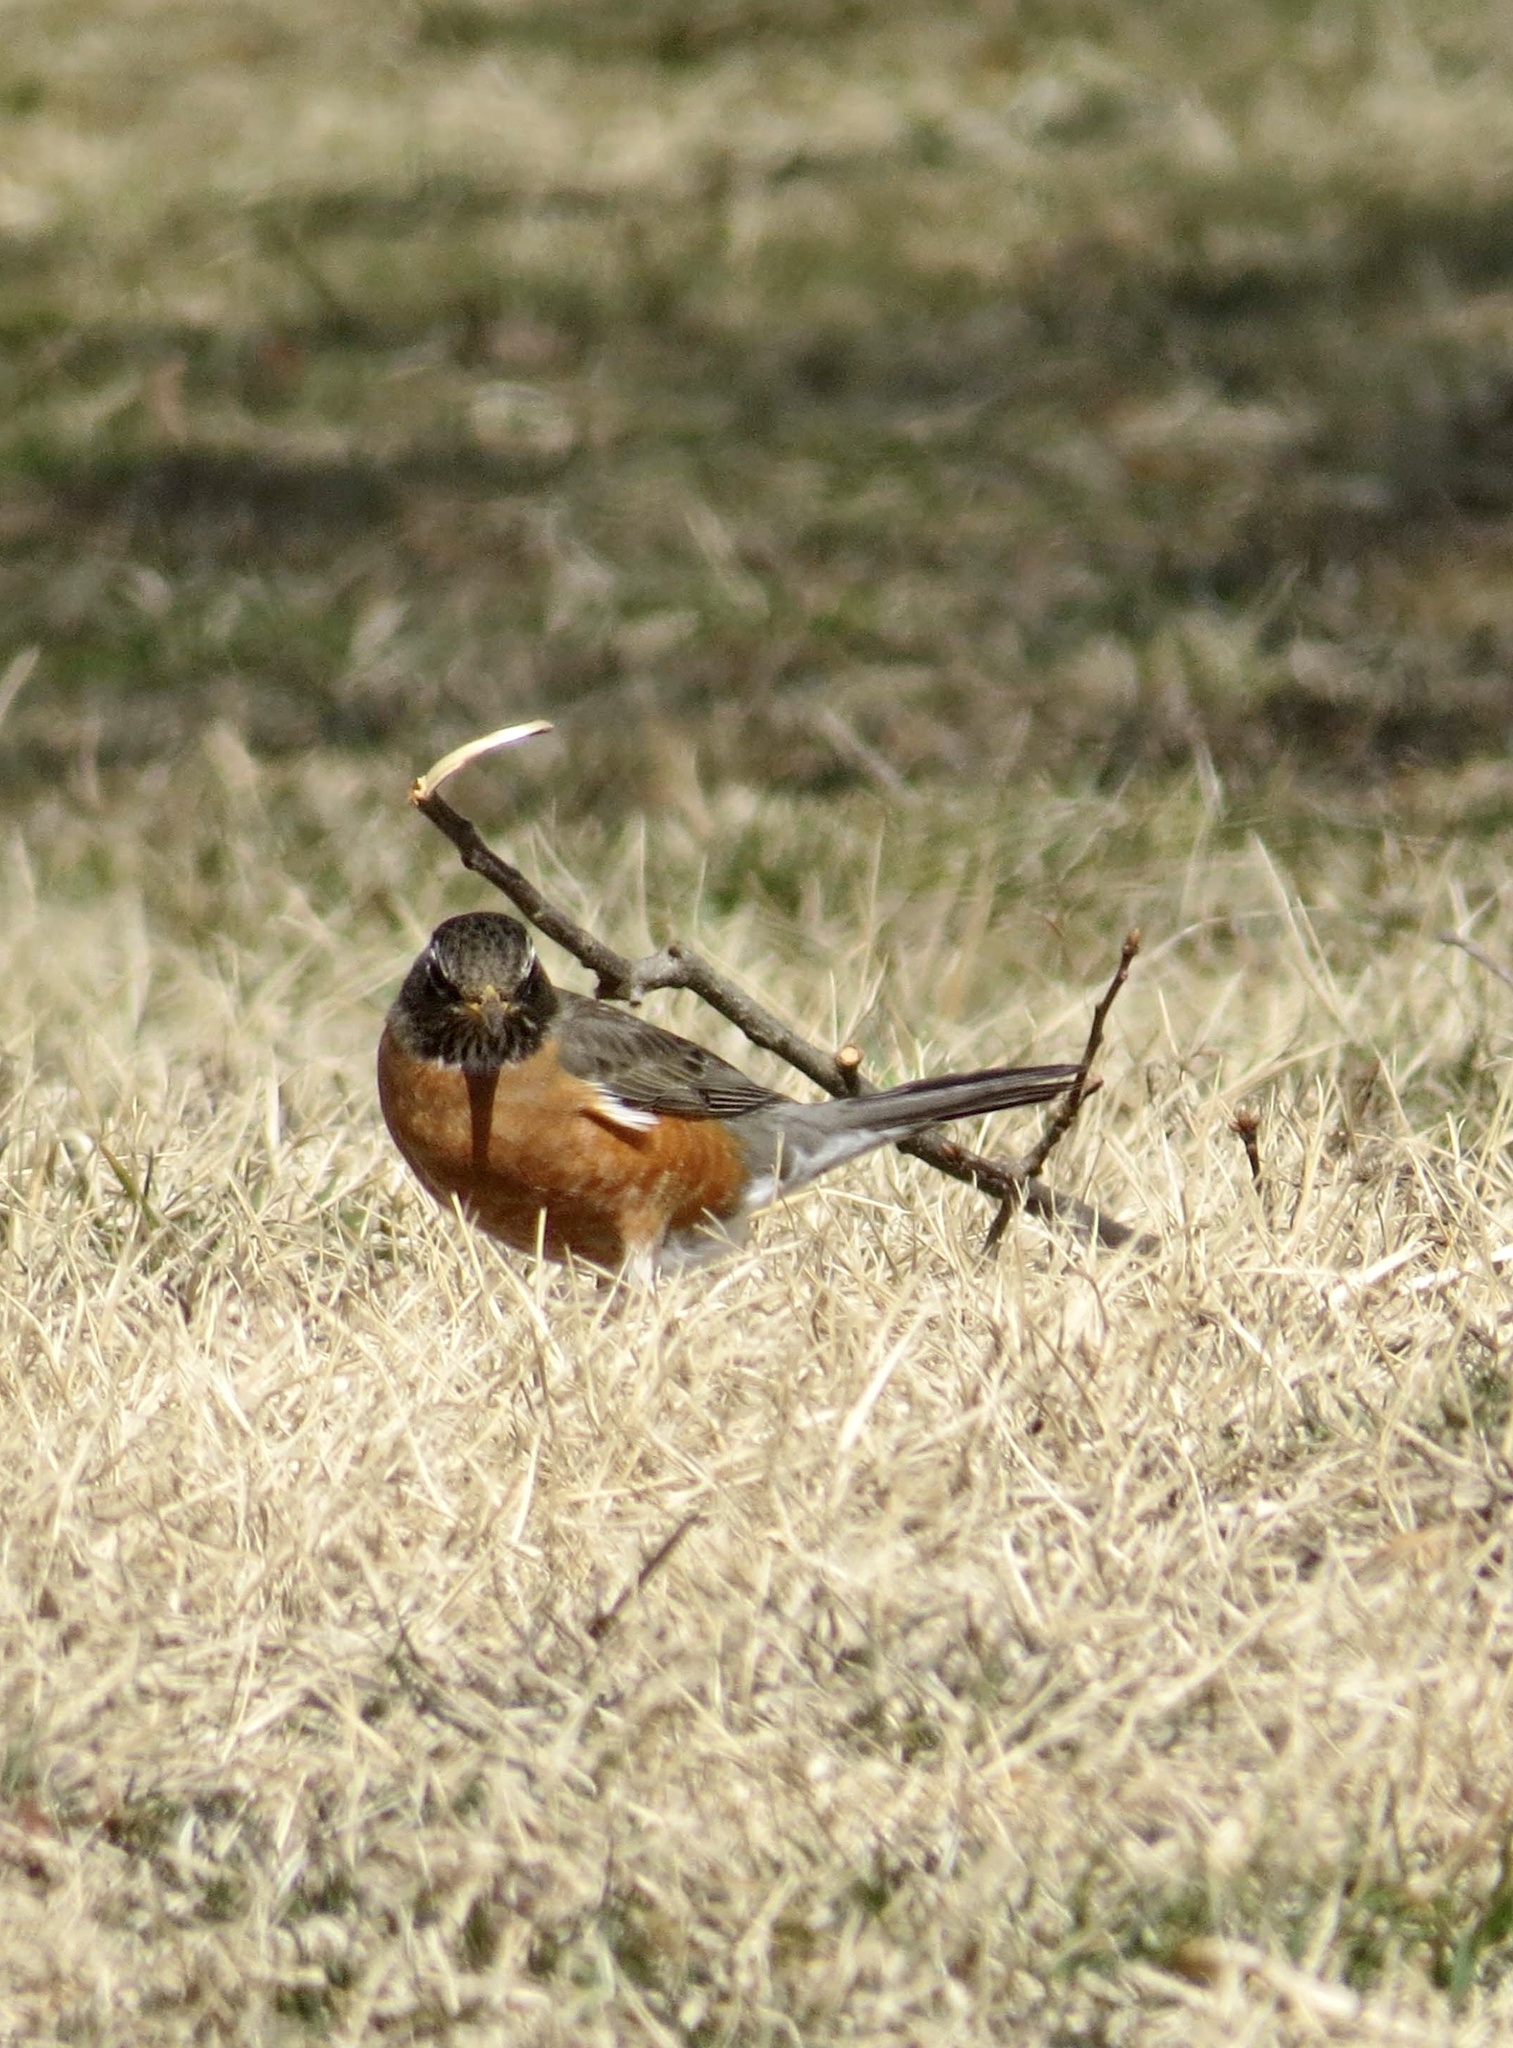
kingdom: Animalia
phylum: Chordata
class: Aves
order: Passeriformes
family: Turdidae
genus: Turdus
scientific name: Turdus migratorius
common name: American robin
